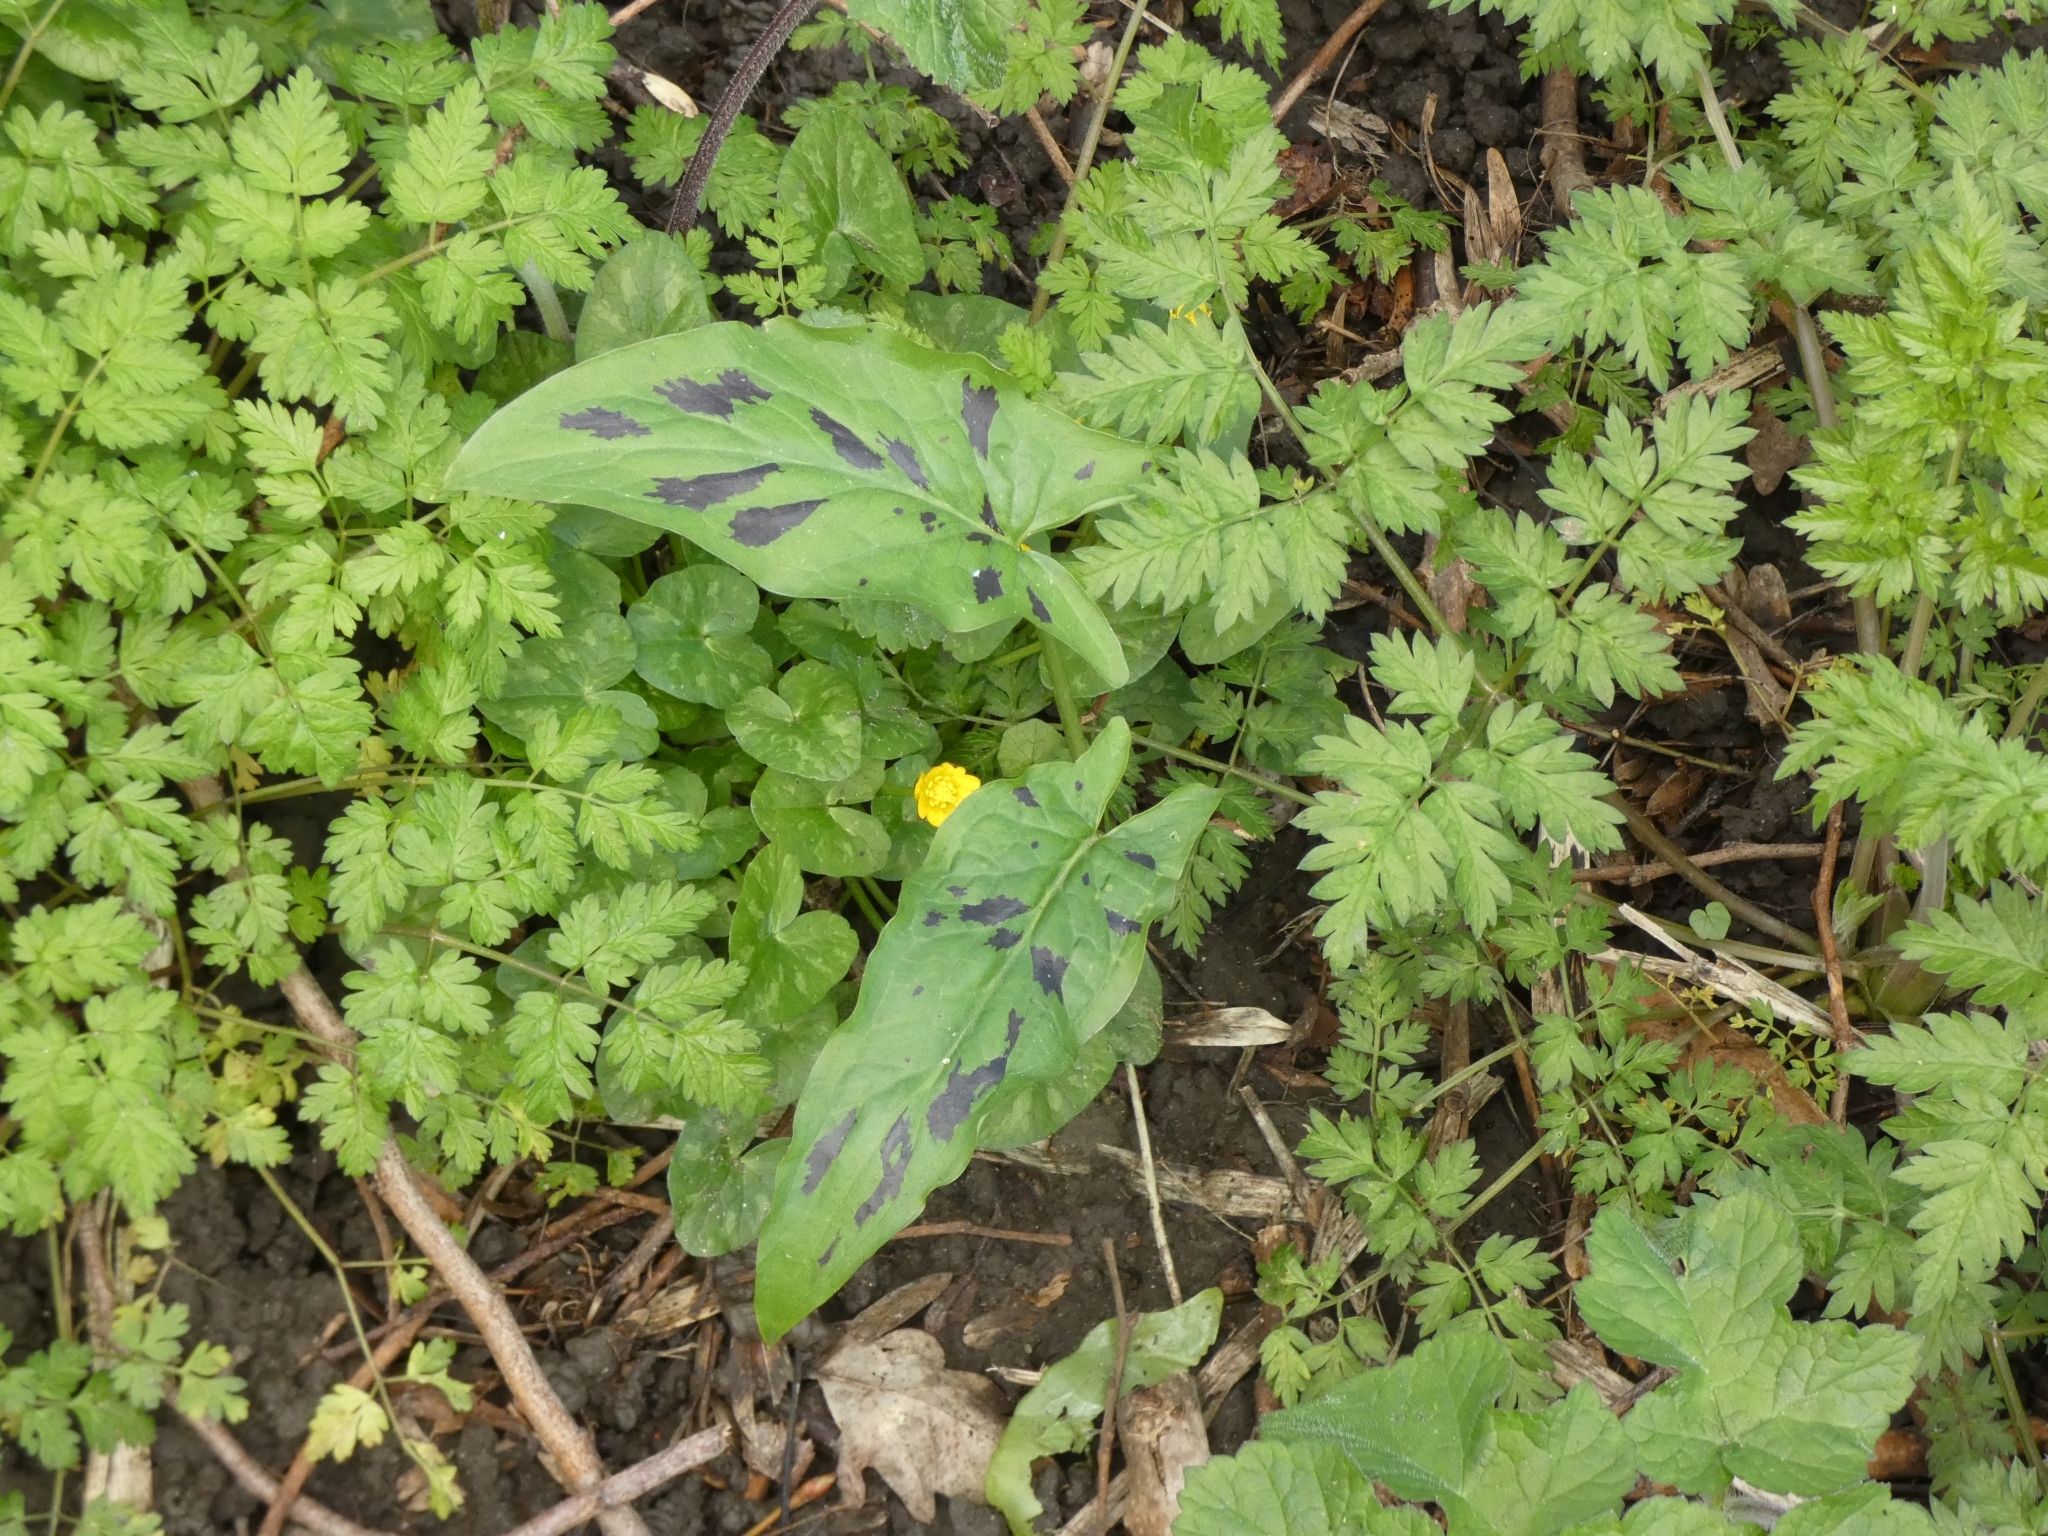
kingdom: Plantae
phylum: Tracheophyta
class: Liliopsida
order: Alismatales
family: Araceae
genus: Arum
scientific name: Arum maculatum
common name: Lords-and-ladies
